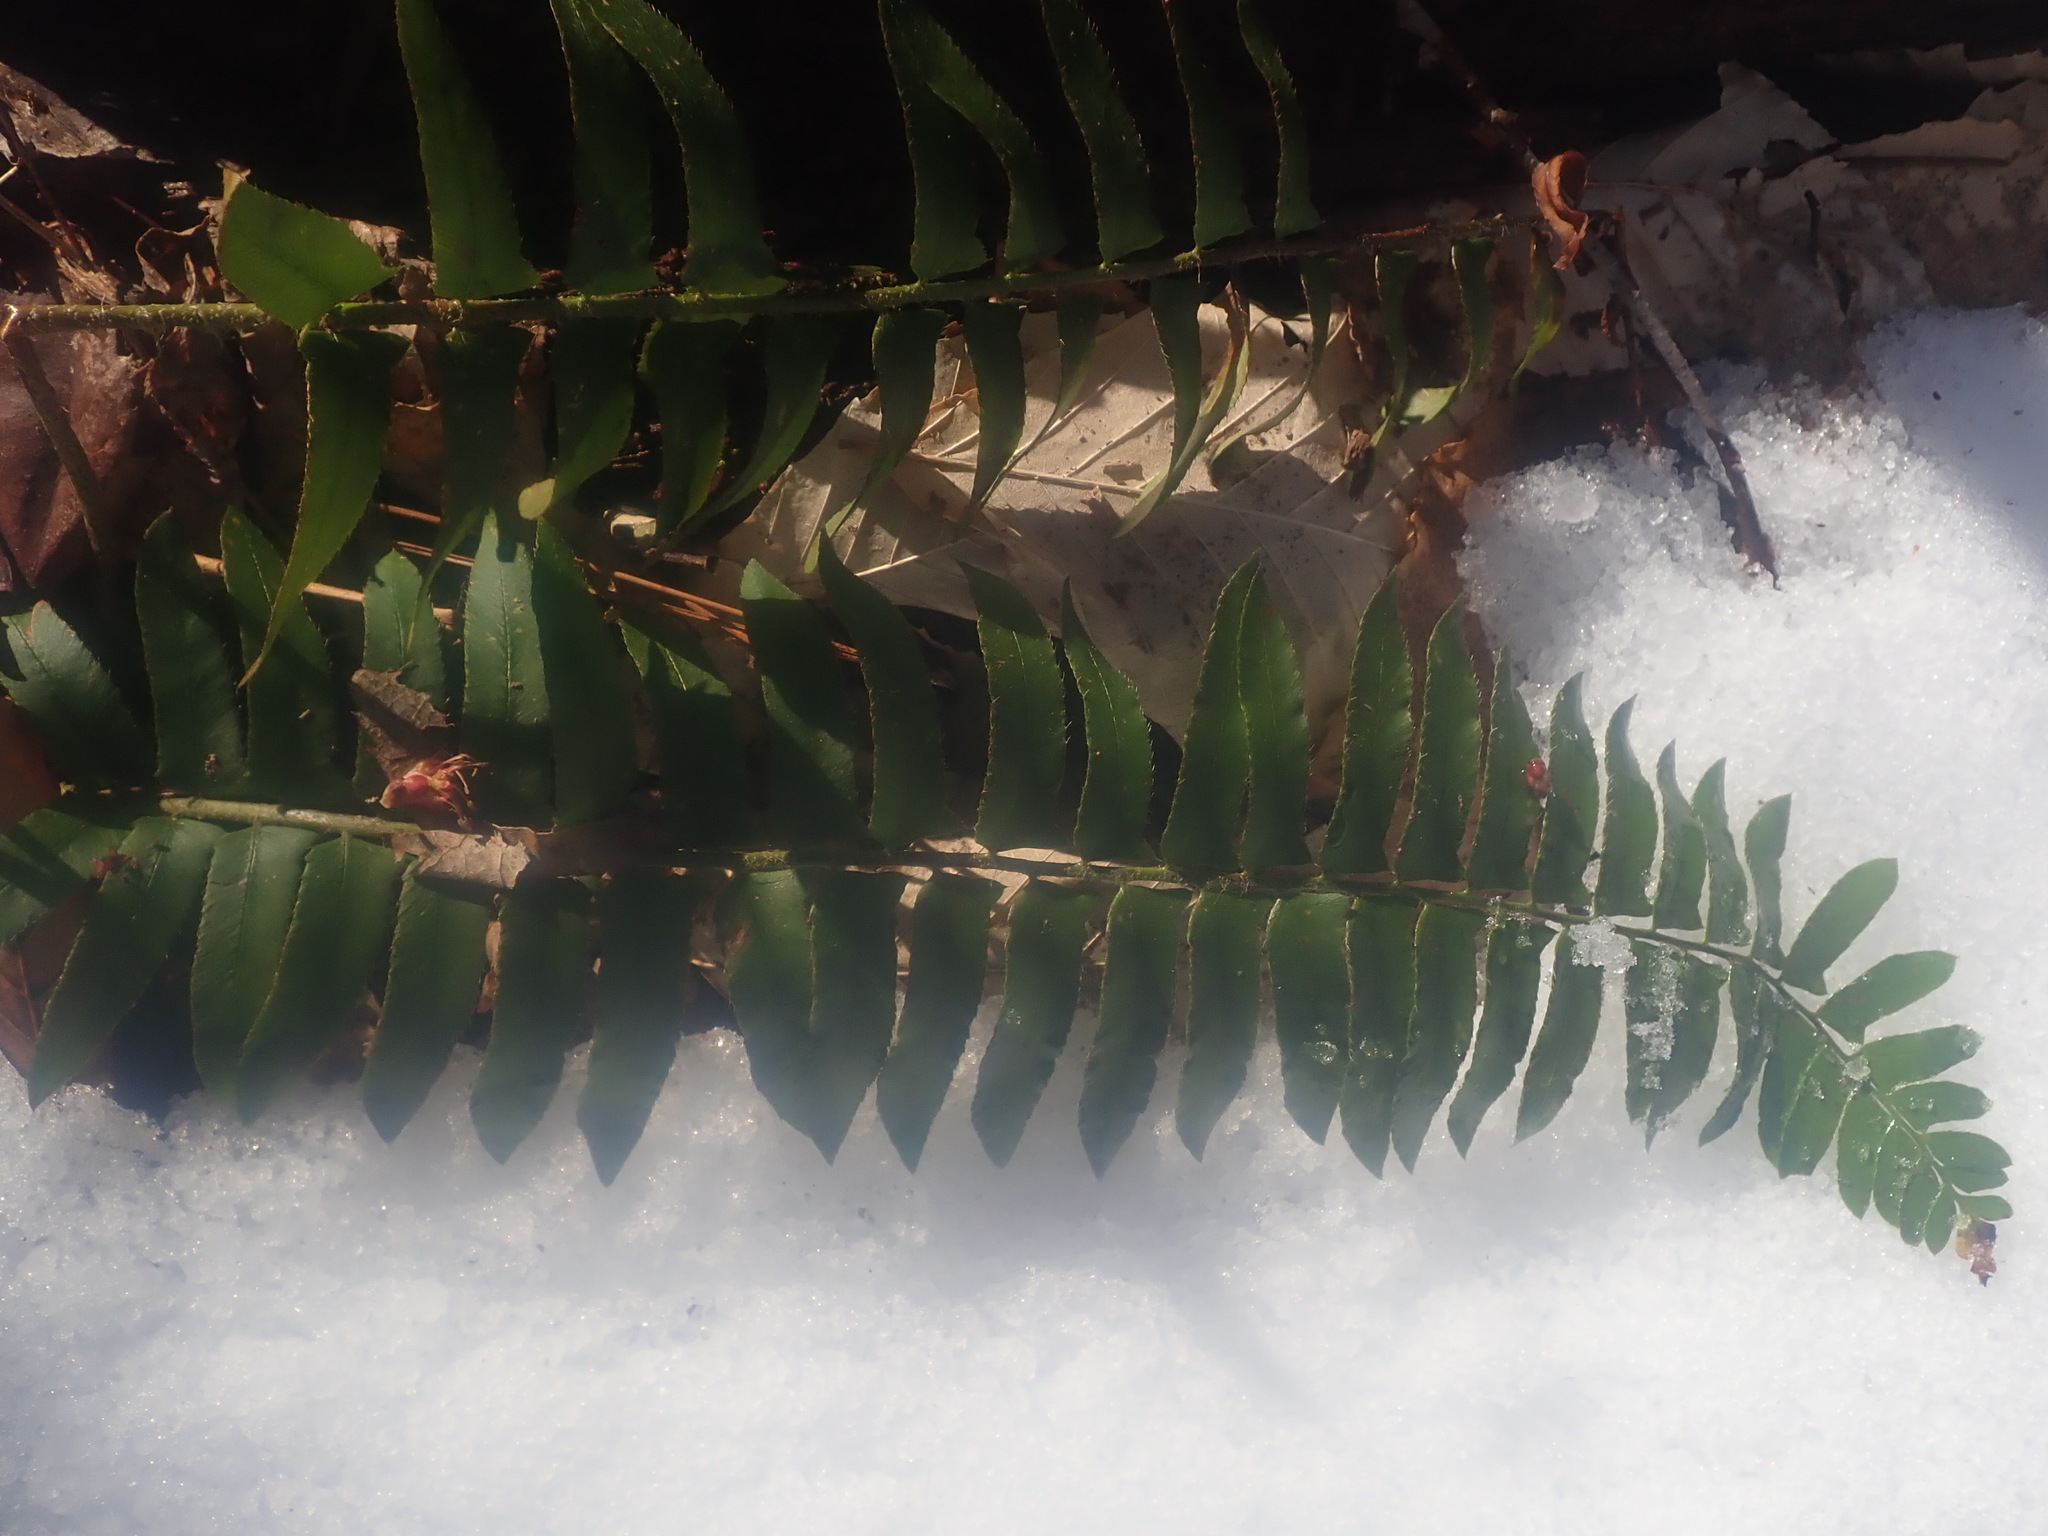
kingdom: Plantae
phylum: Tracheophyta
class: Polypodiopsida
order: Polypodiales
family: Dryopteridaceae
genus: Polystichum
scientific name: Polystichum acrostichoides
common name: Christmas fern
